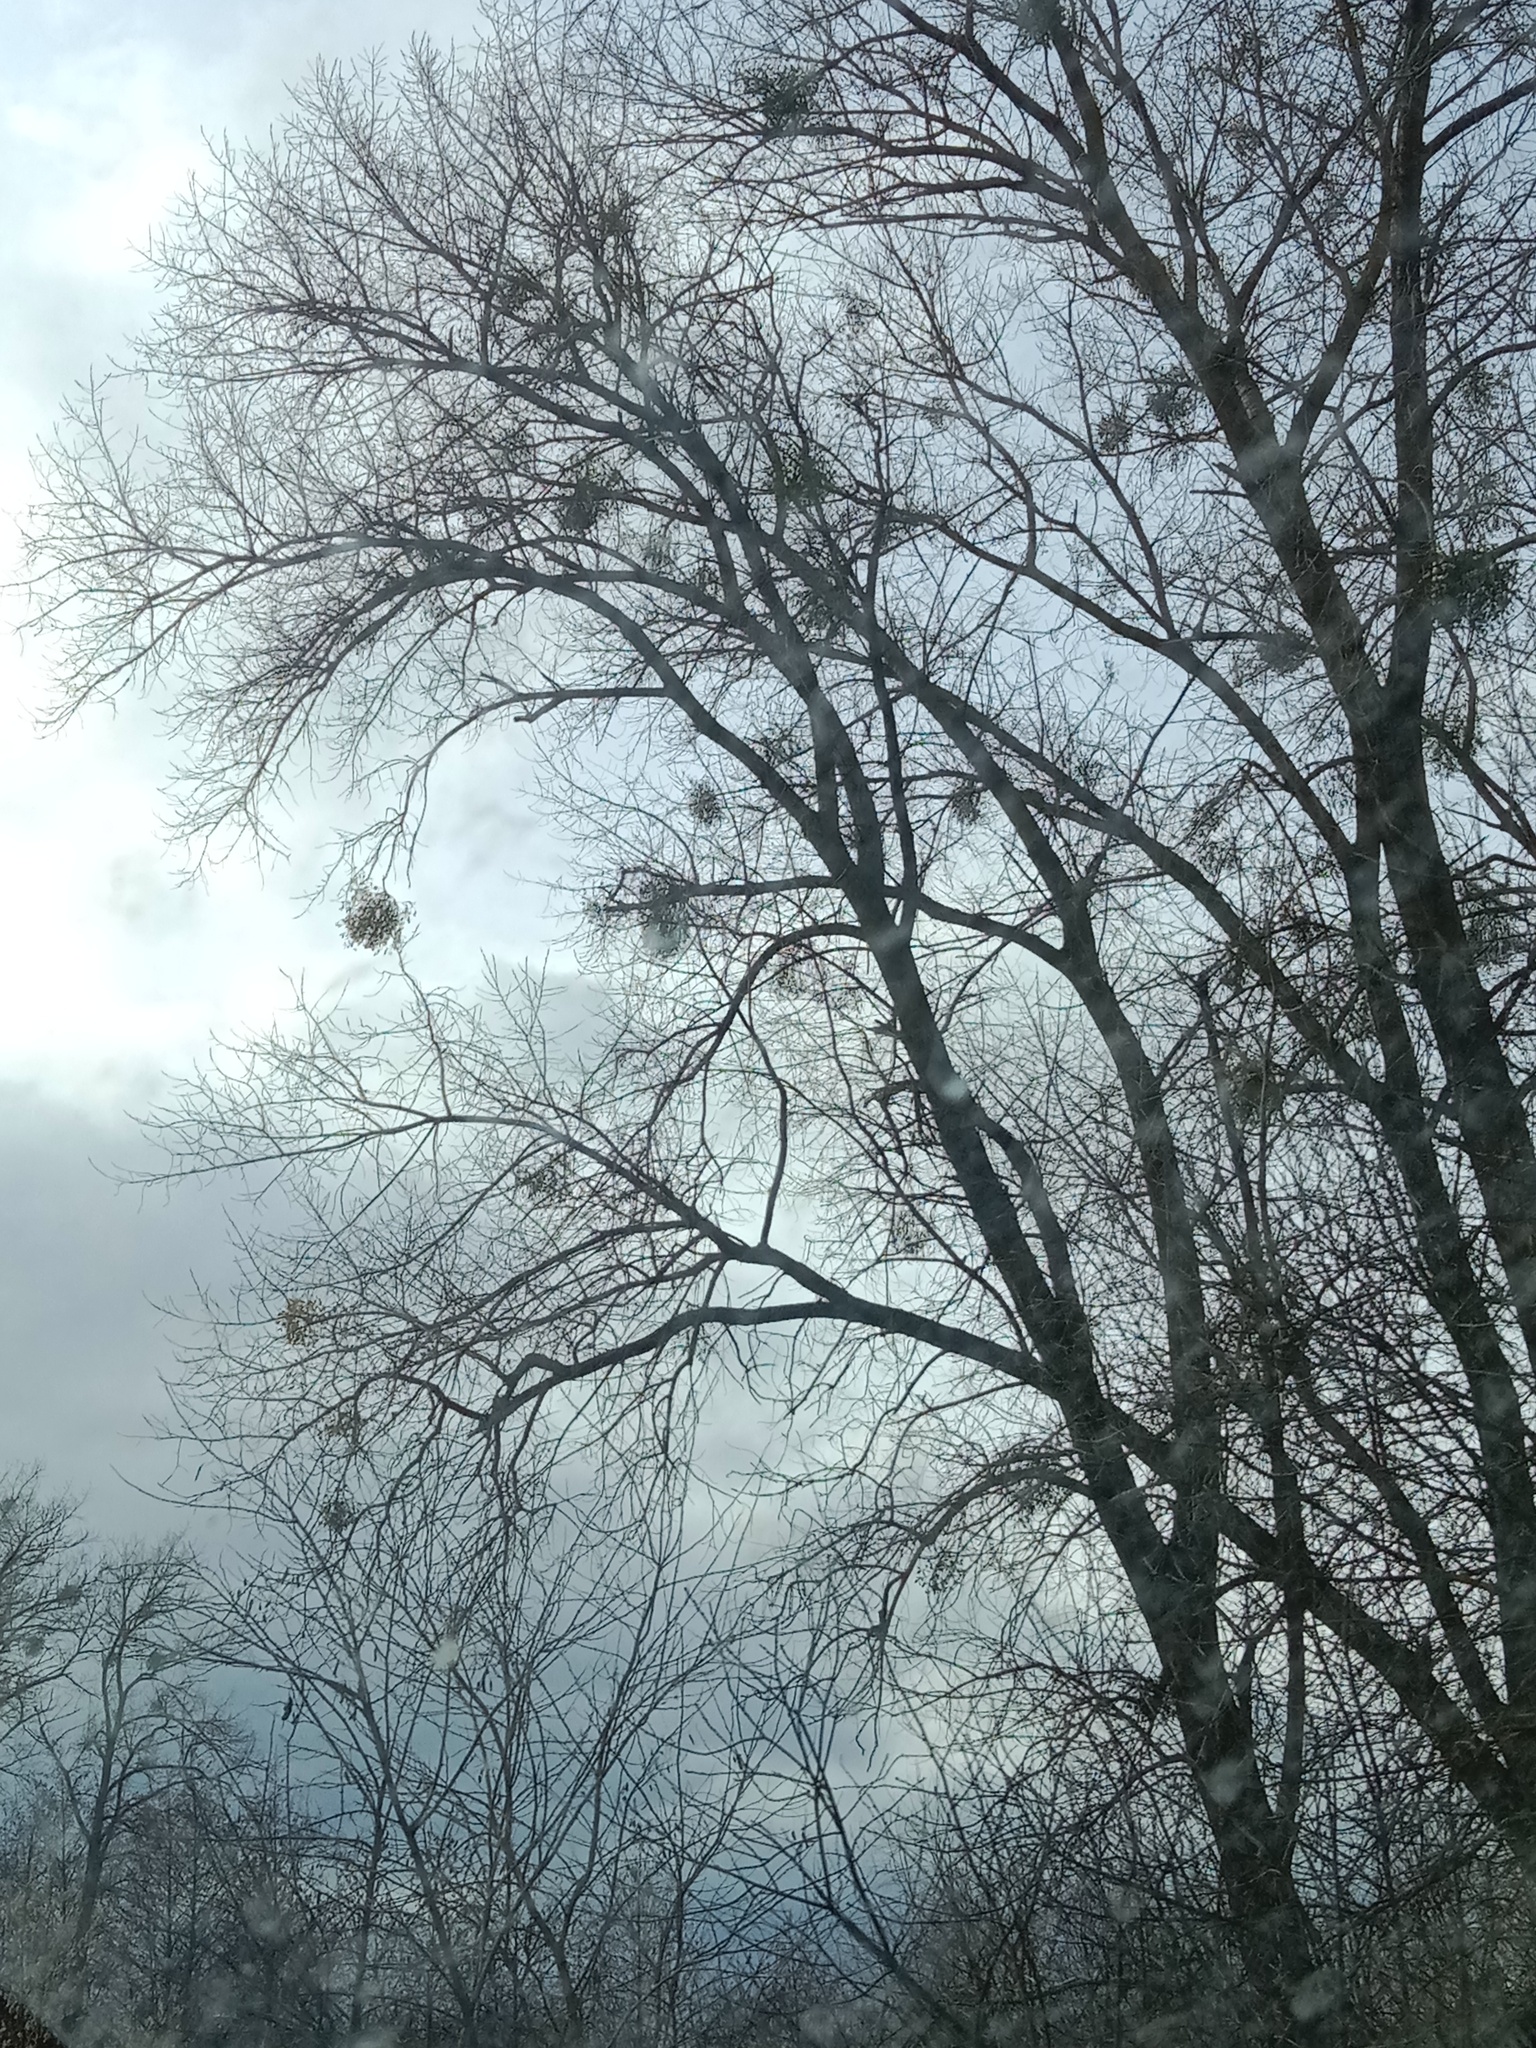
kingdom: Plantae
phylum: Tracheophyta
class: Magnoliopsida
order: Santalales
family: Viscaceae
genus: Viscum
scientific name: Viscum album
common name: Mistletoe
